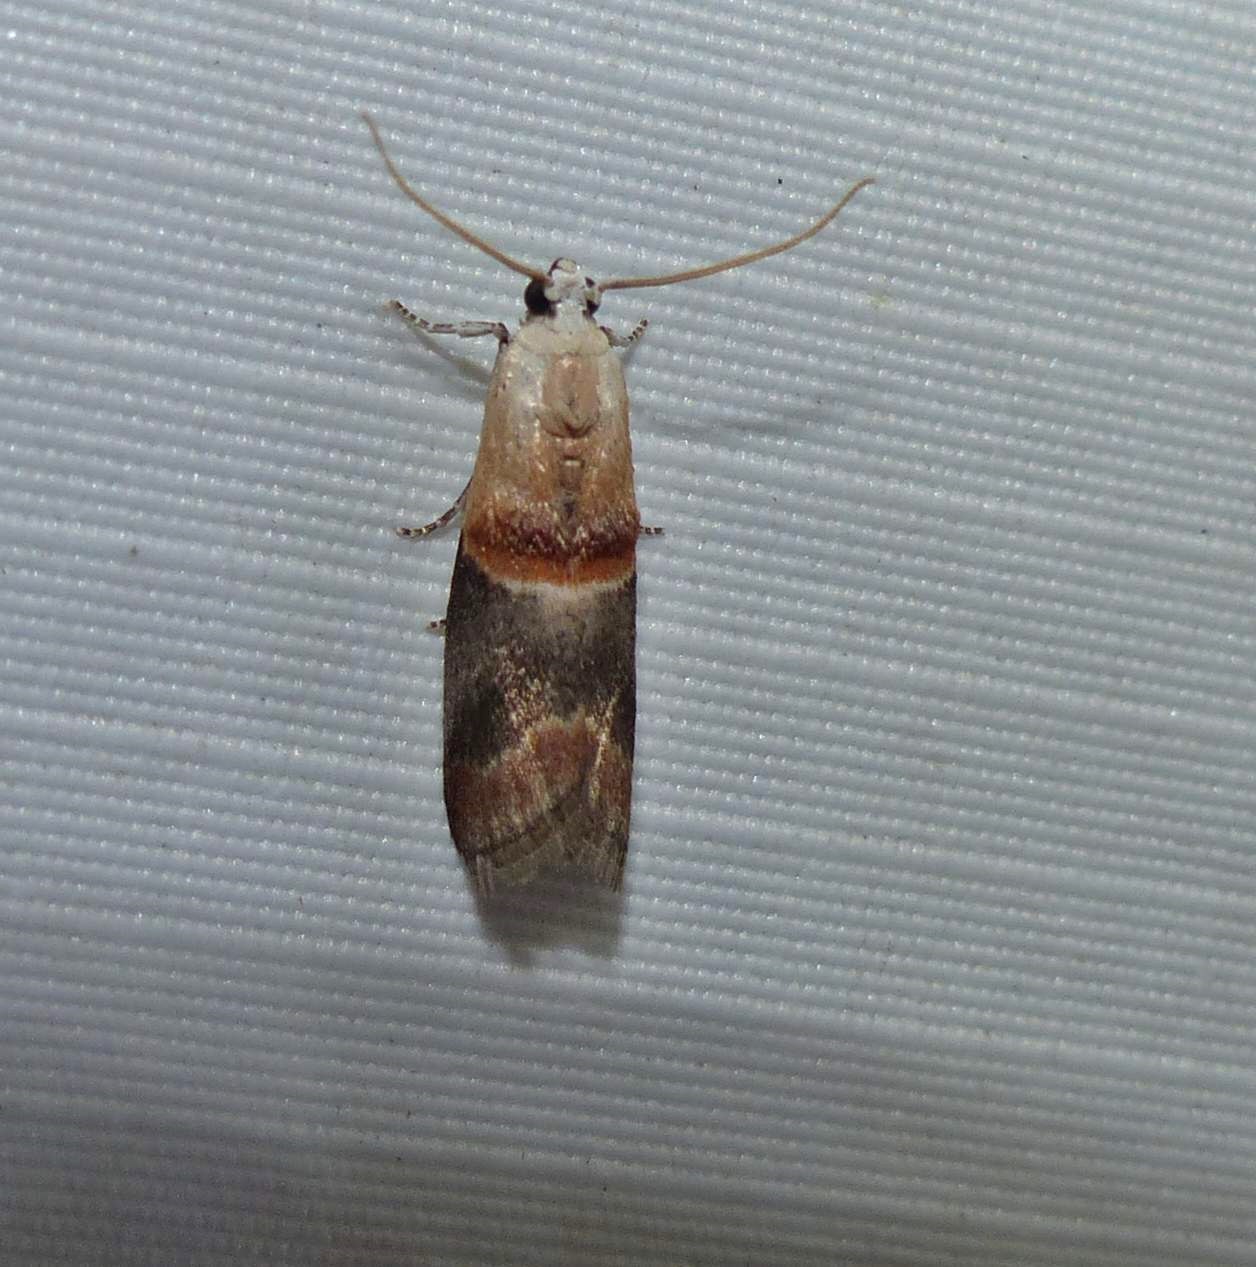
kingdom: Animalia
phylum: Arthropoda
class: Insecta
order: Lepidoptera
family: Pyralidae
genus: Acrobasis
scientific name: Acrobasis demotella
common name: Walnut shoot moth
